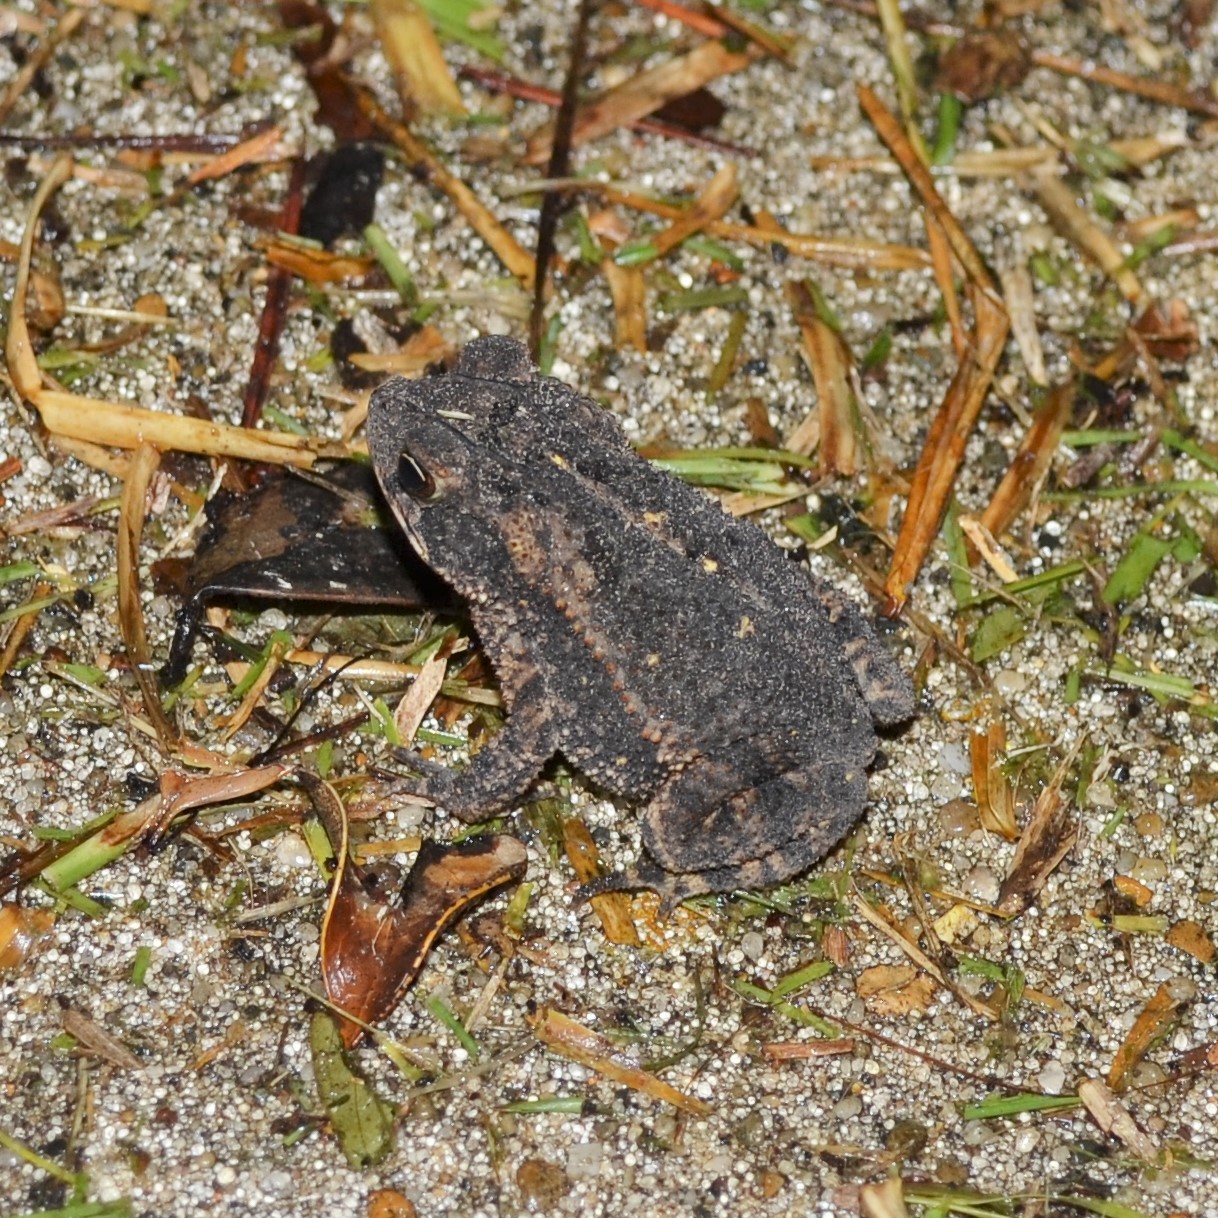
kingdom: Animalia
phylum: Chordata
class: Amphibia
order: Anura
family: Bufonidae
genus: Incilius
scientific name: Incilius nebulifer
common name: Gulf coast toad
